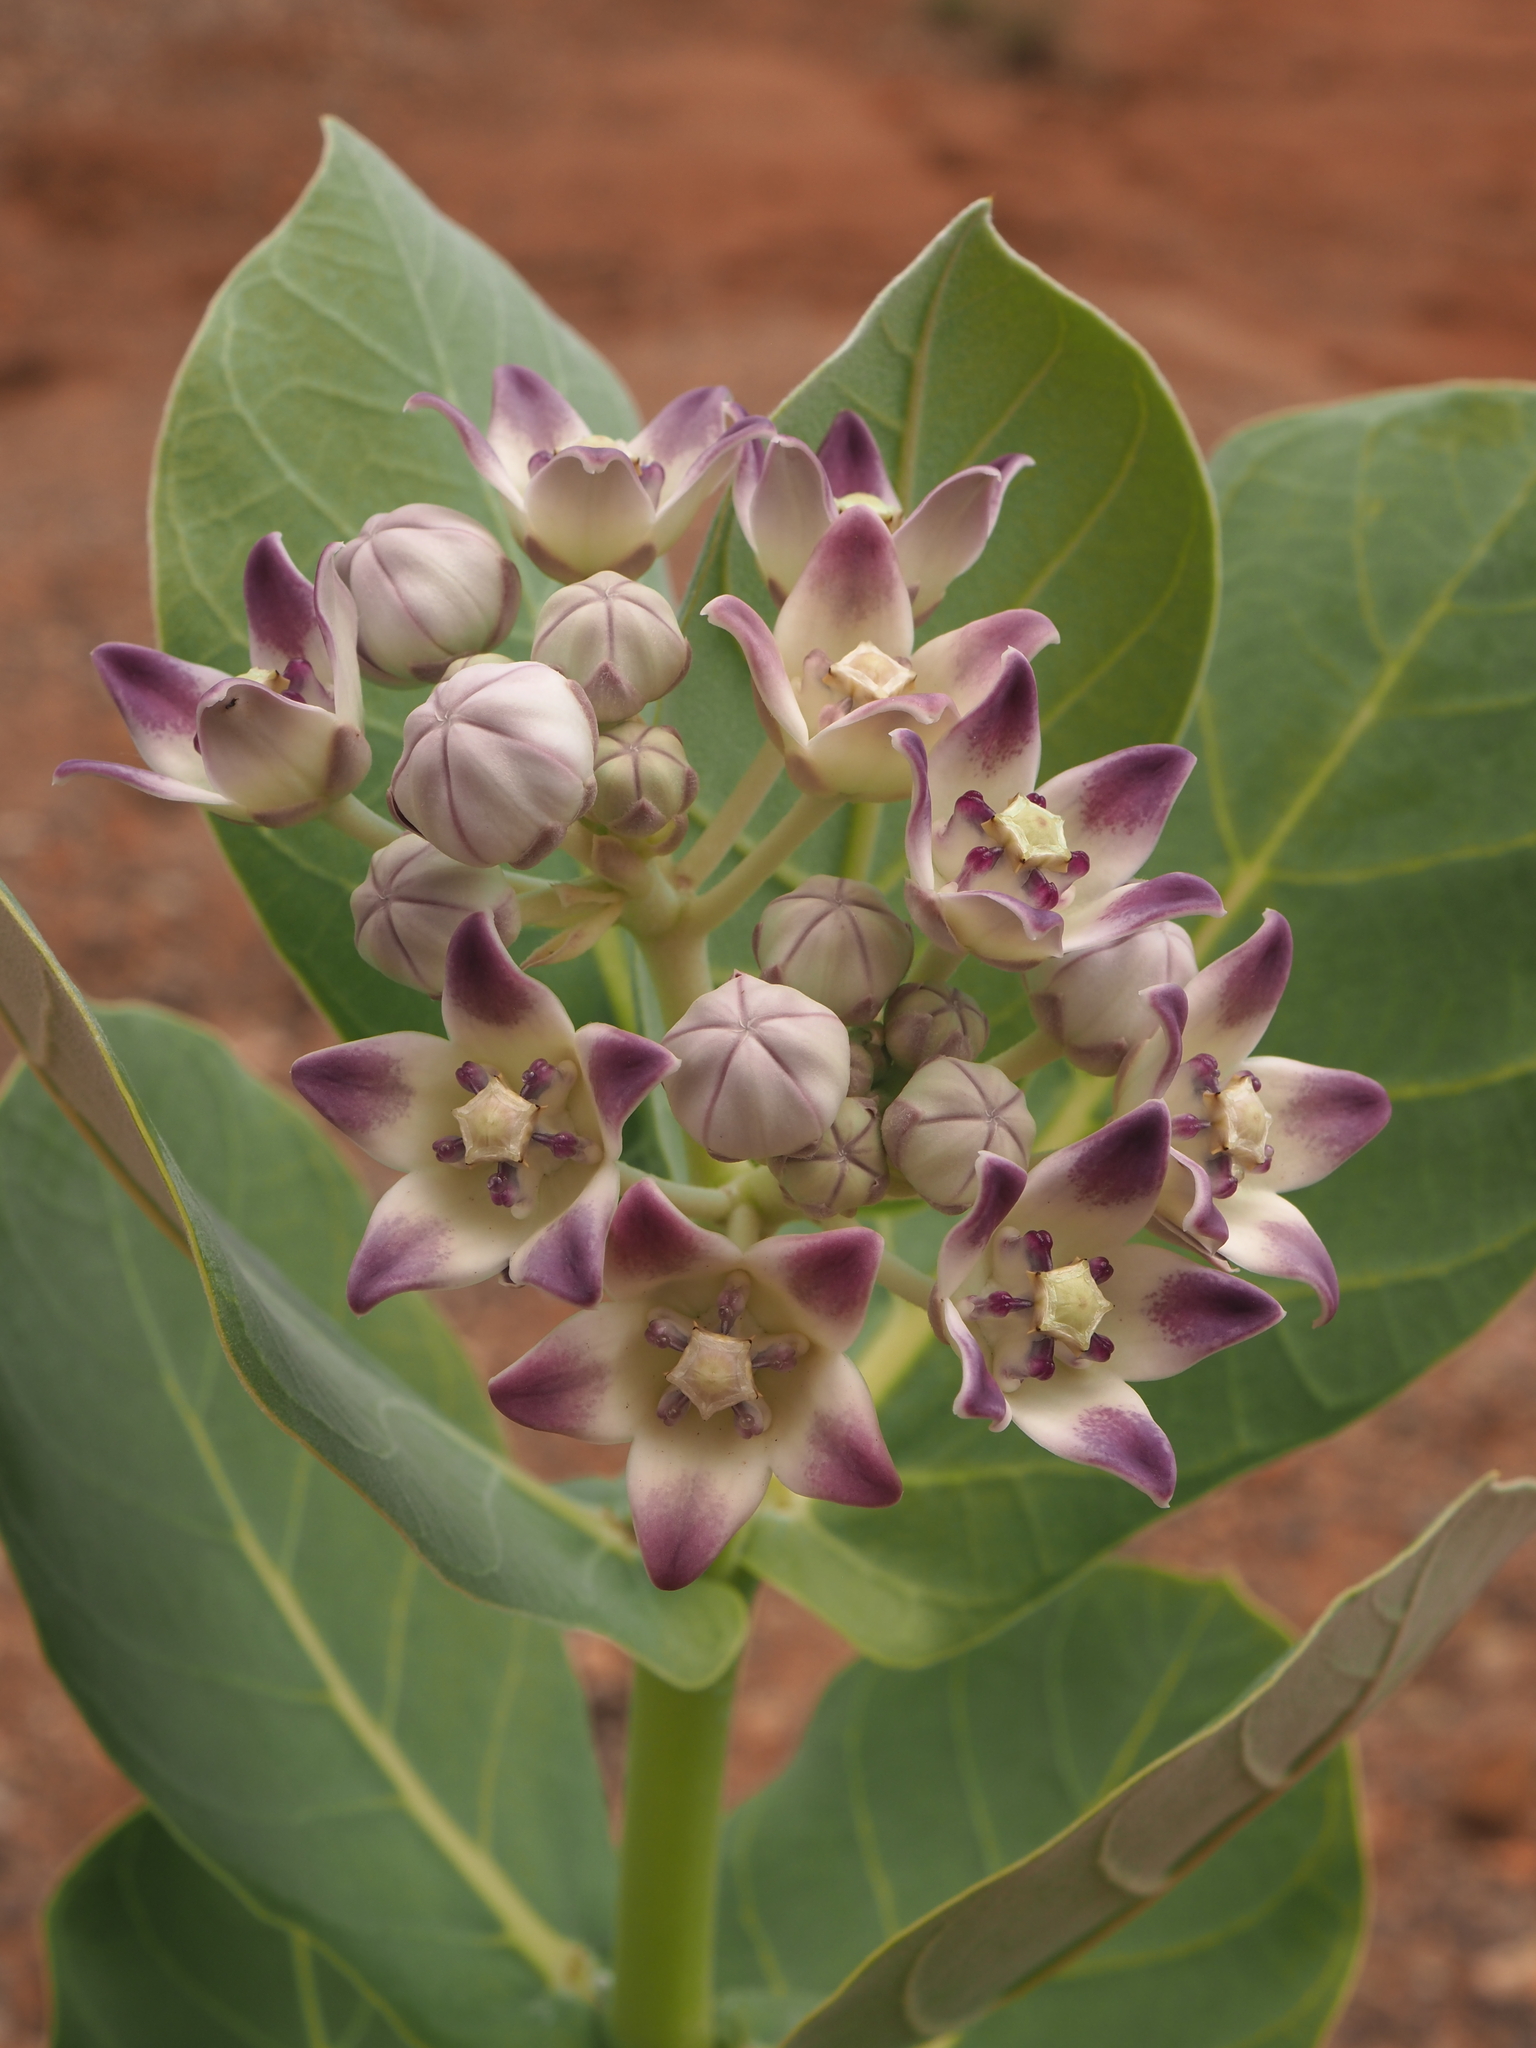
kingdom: Plantae
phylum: Tracheophyta
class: Magnoliopsida
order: Gentianales
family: Apocynaceae
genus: Calotropis
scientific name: Calotropis procera
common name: Roostertree
